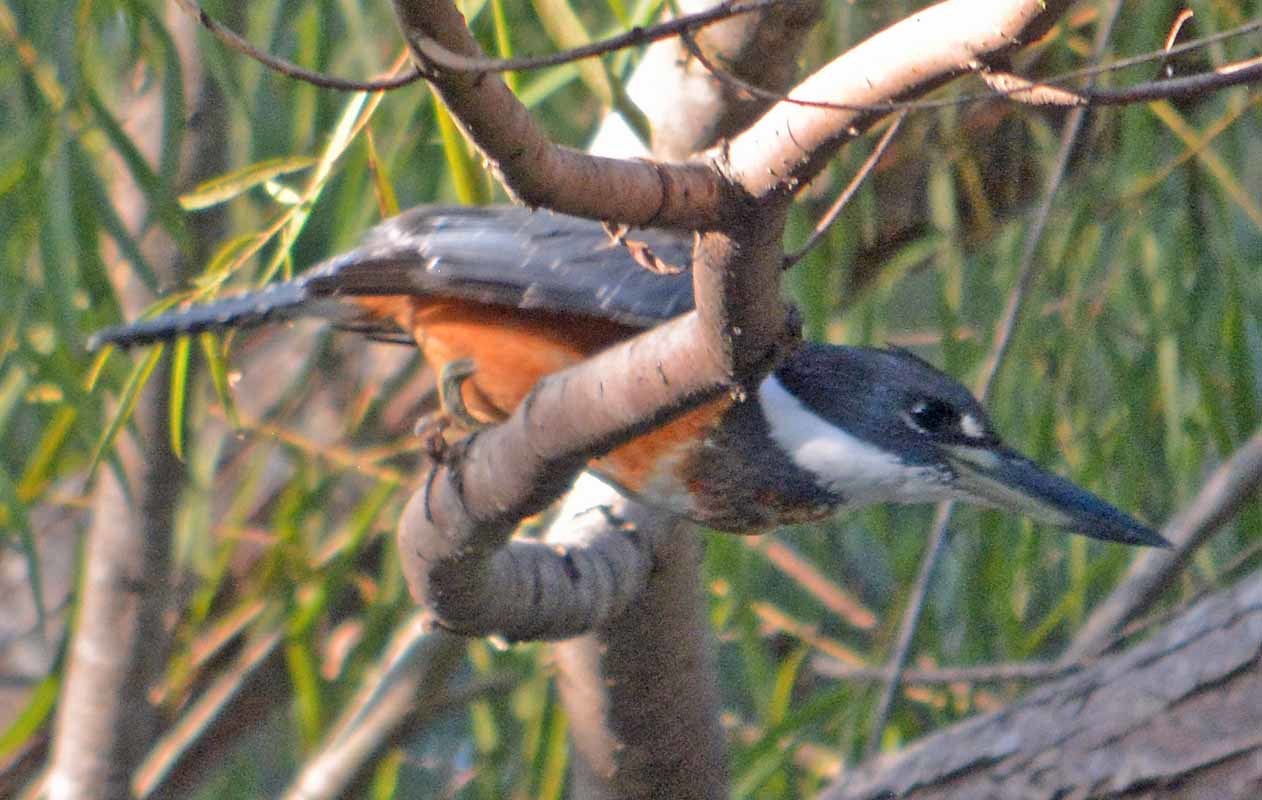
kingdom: Animalia
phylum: Chordata
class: Aves
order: Coraciiformes
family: Alcedinidae
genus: Megaceryle
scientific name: Megaceryle torquata
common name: Ringed kingfisher
